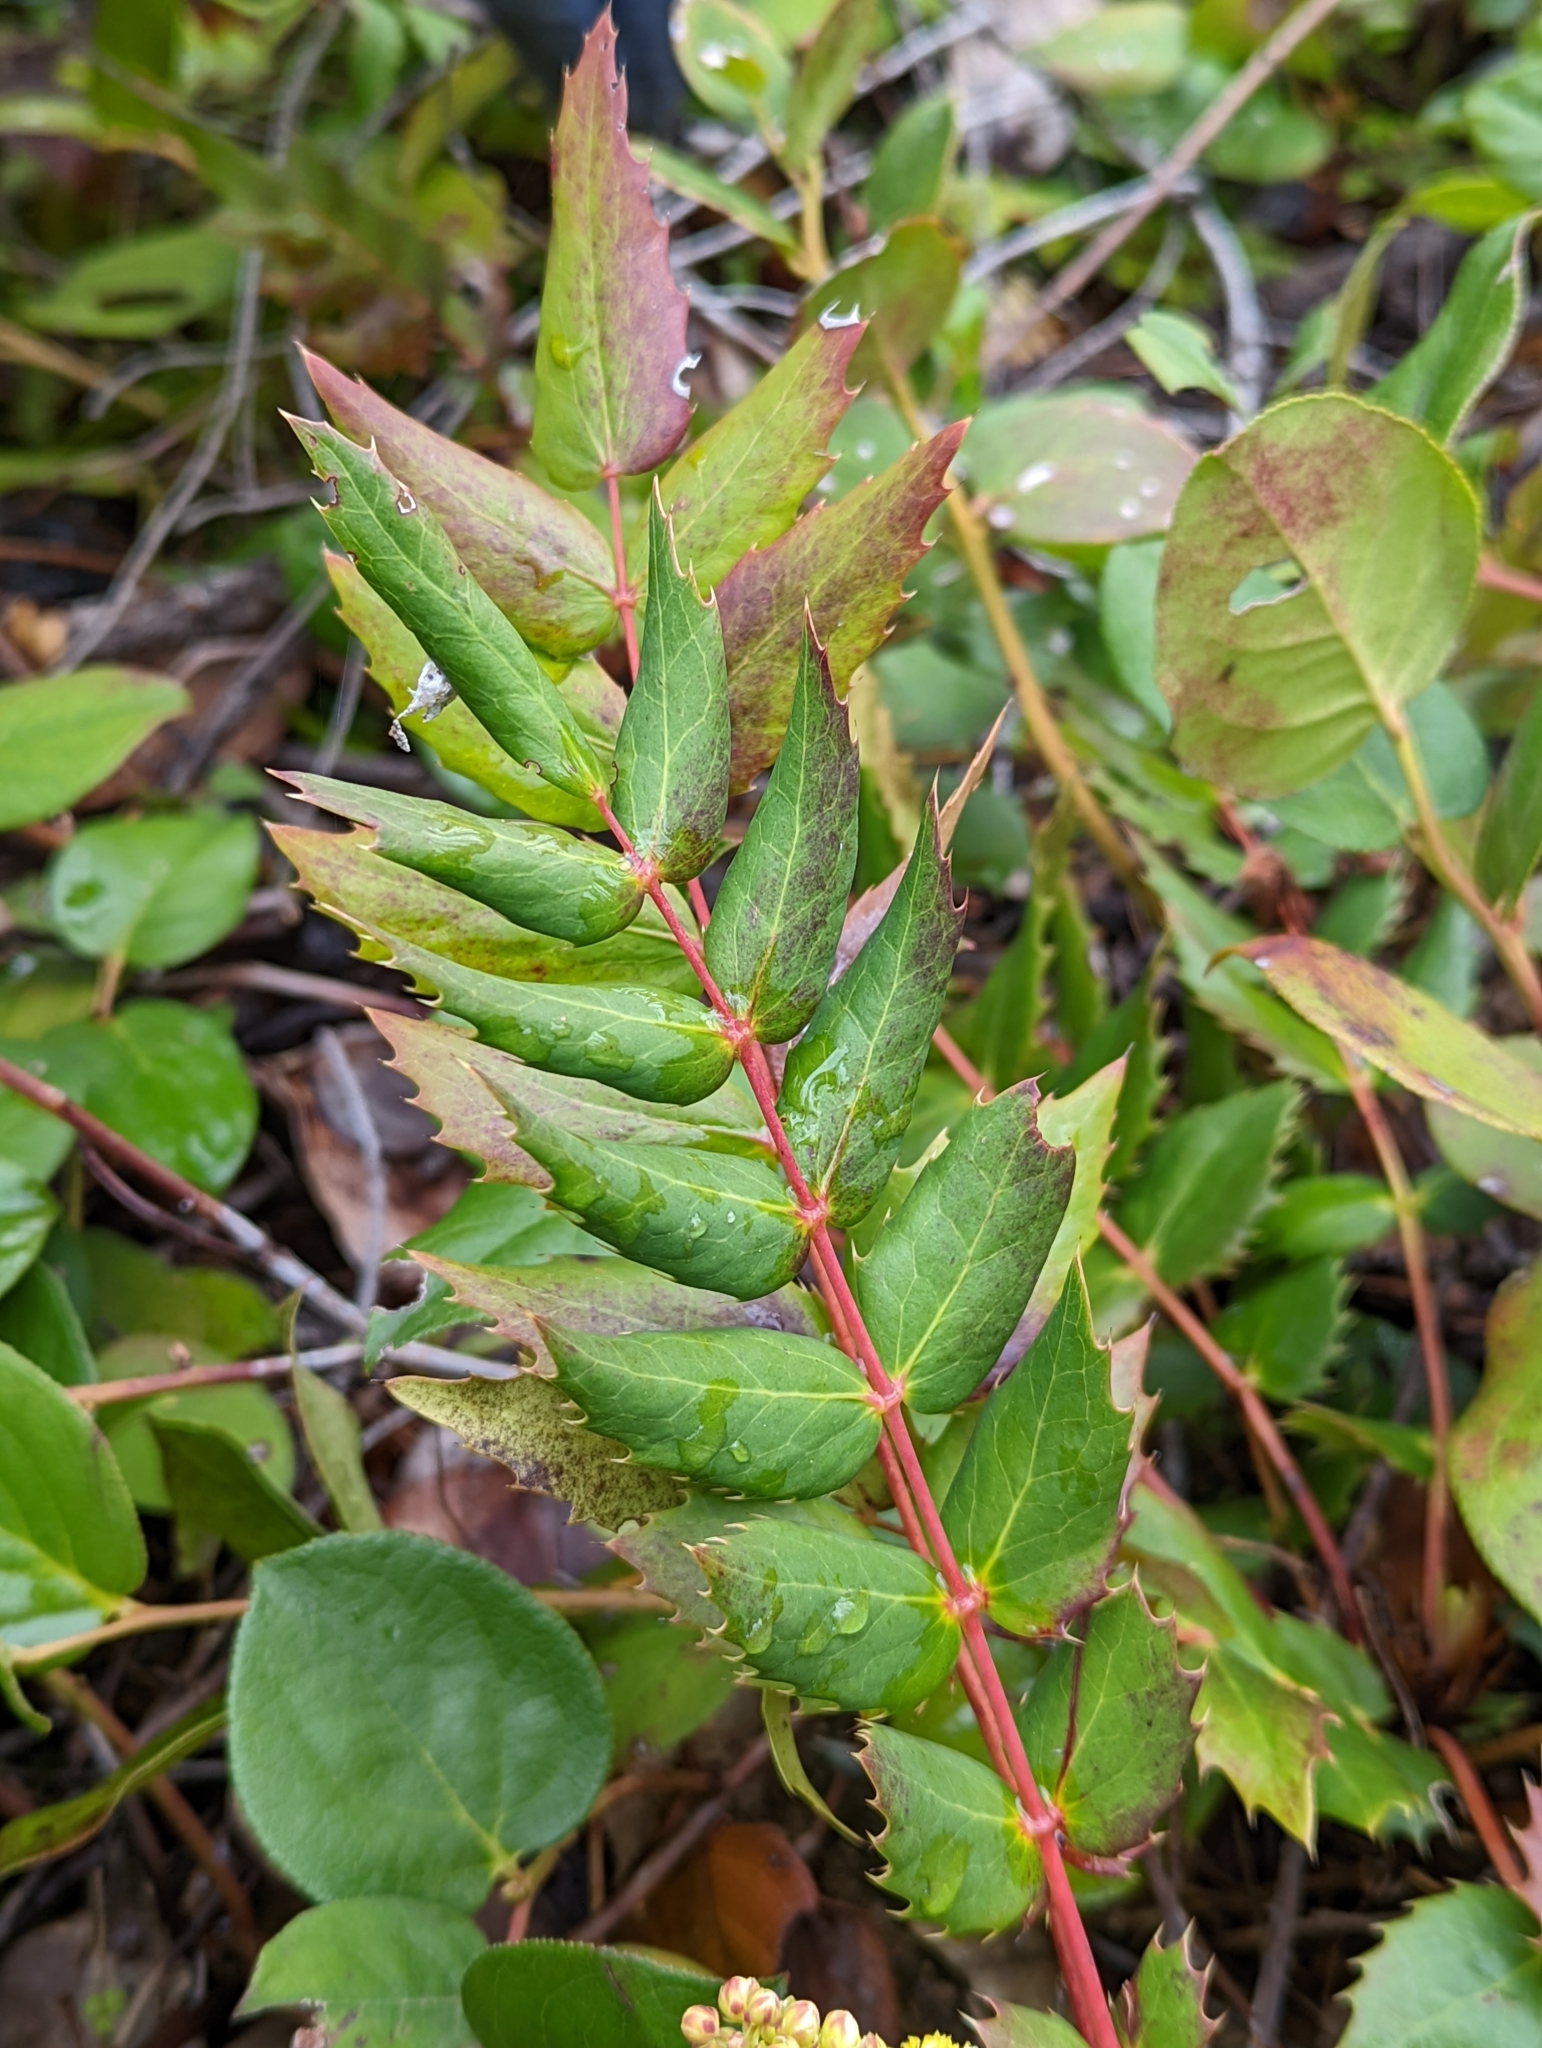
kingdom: Plantae
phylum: Tracheophyta
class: Magnoliopsida
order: Ranunculales
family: Berberidaceae
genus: Mahonia
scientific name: Mahonia nervosa
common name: Cascade oregon-grape
